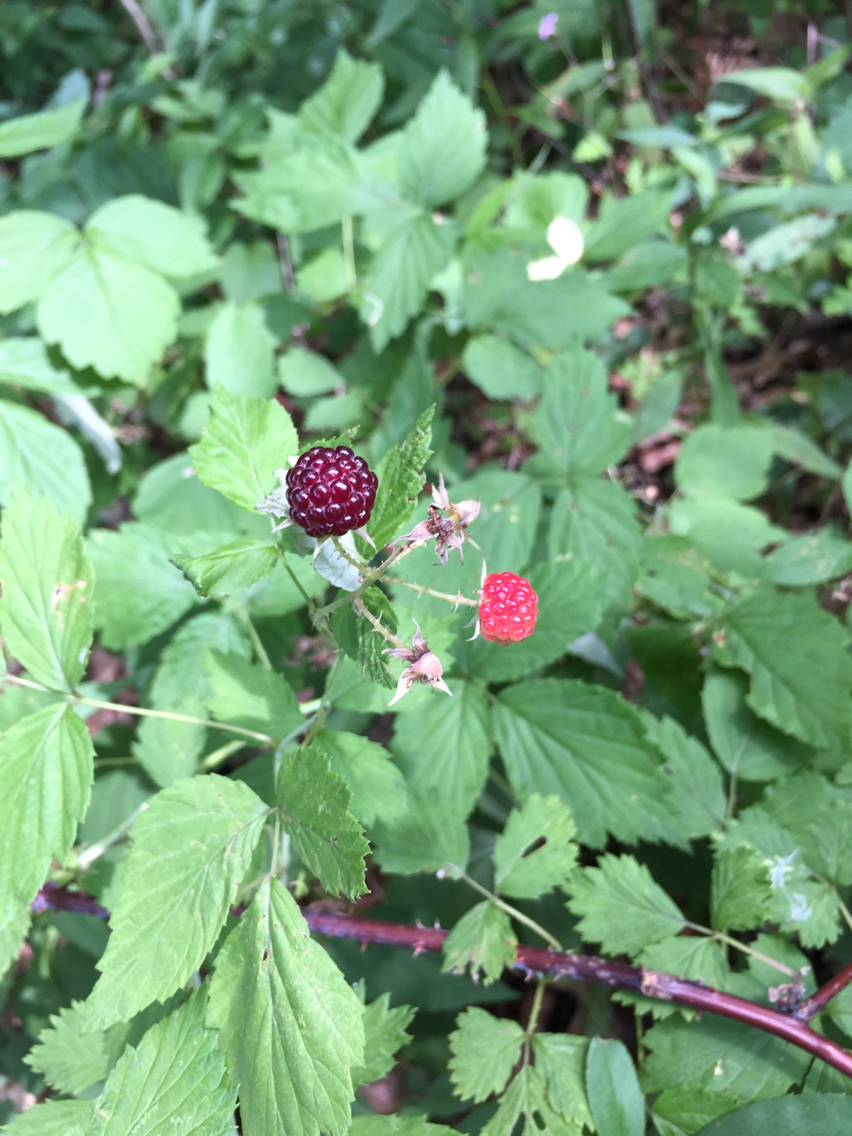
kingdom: Plantae
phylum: Tracheophyta
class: Magnoliopsida
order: Rosales
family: Rosaceae
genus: Rubus
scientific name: Rubus occidentalis
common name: Black raspberry
